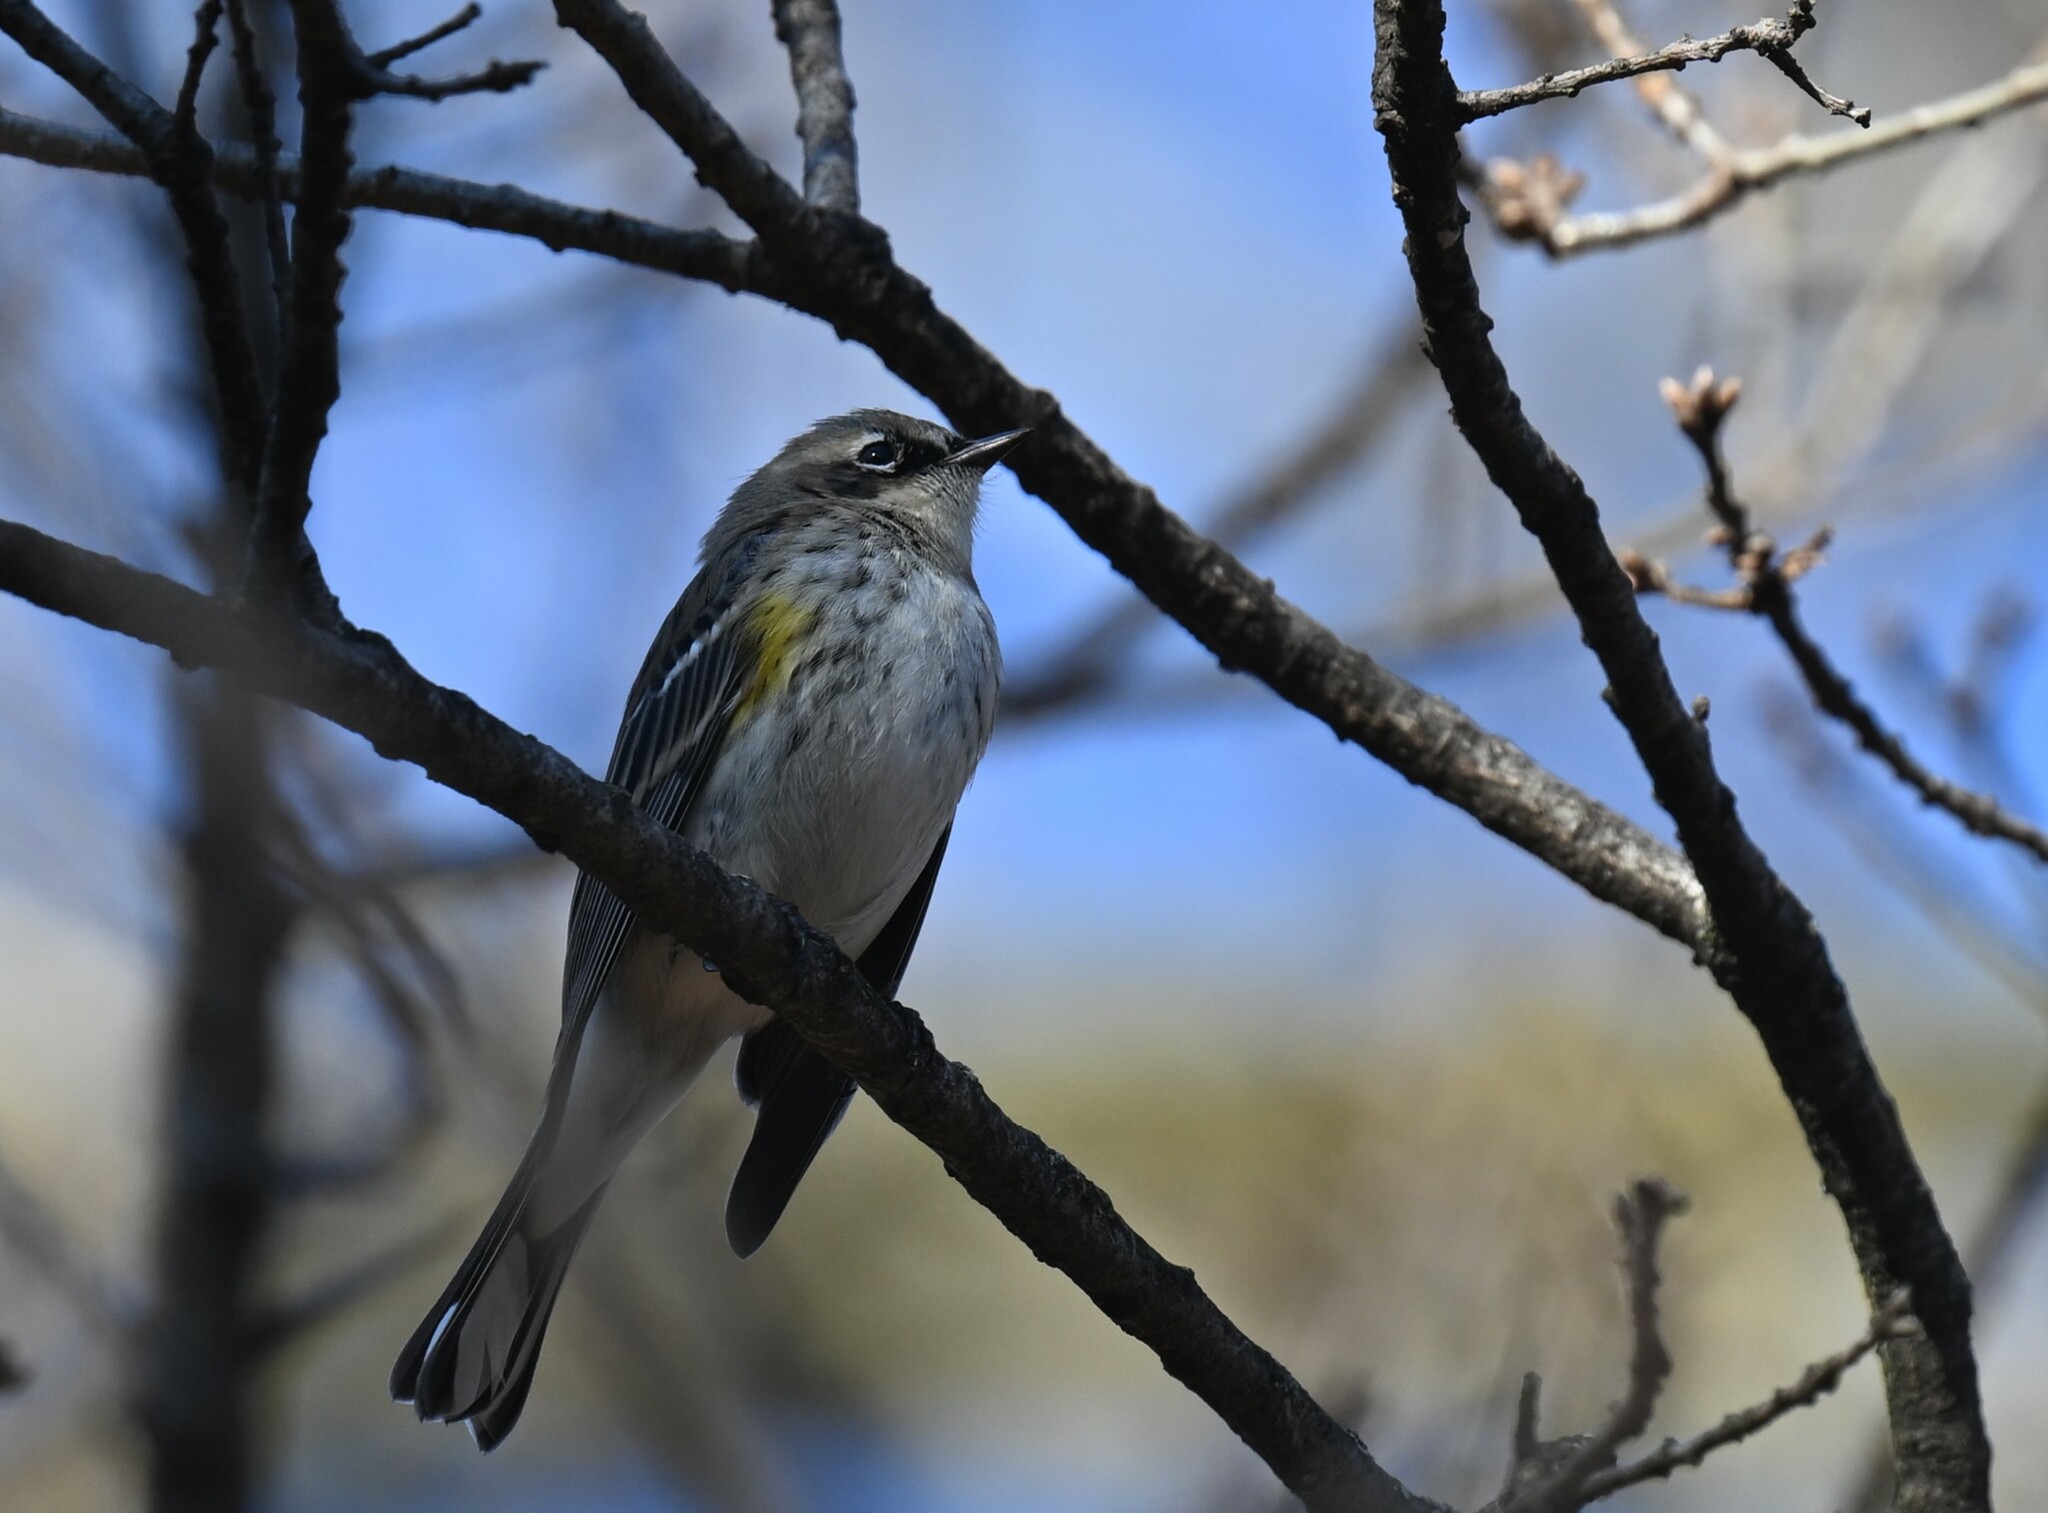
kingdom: Animalia
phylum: Chordata
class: Aves
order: Passeriformes
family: Parulidae
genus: Setophaga
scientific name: Setophaga coronata
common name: Myrtle warbler
